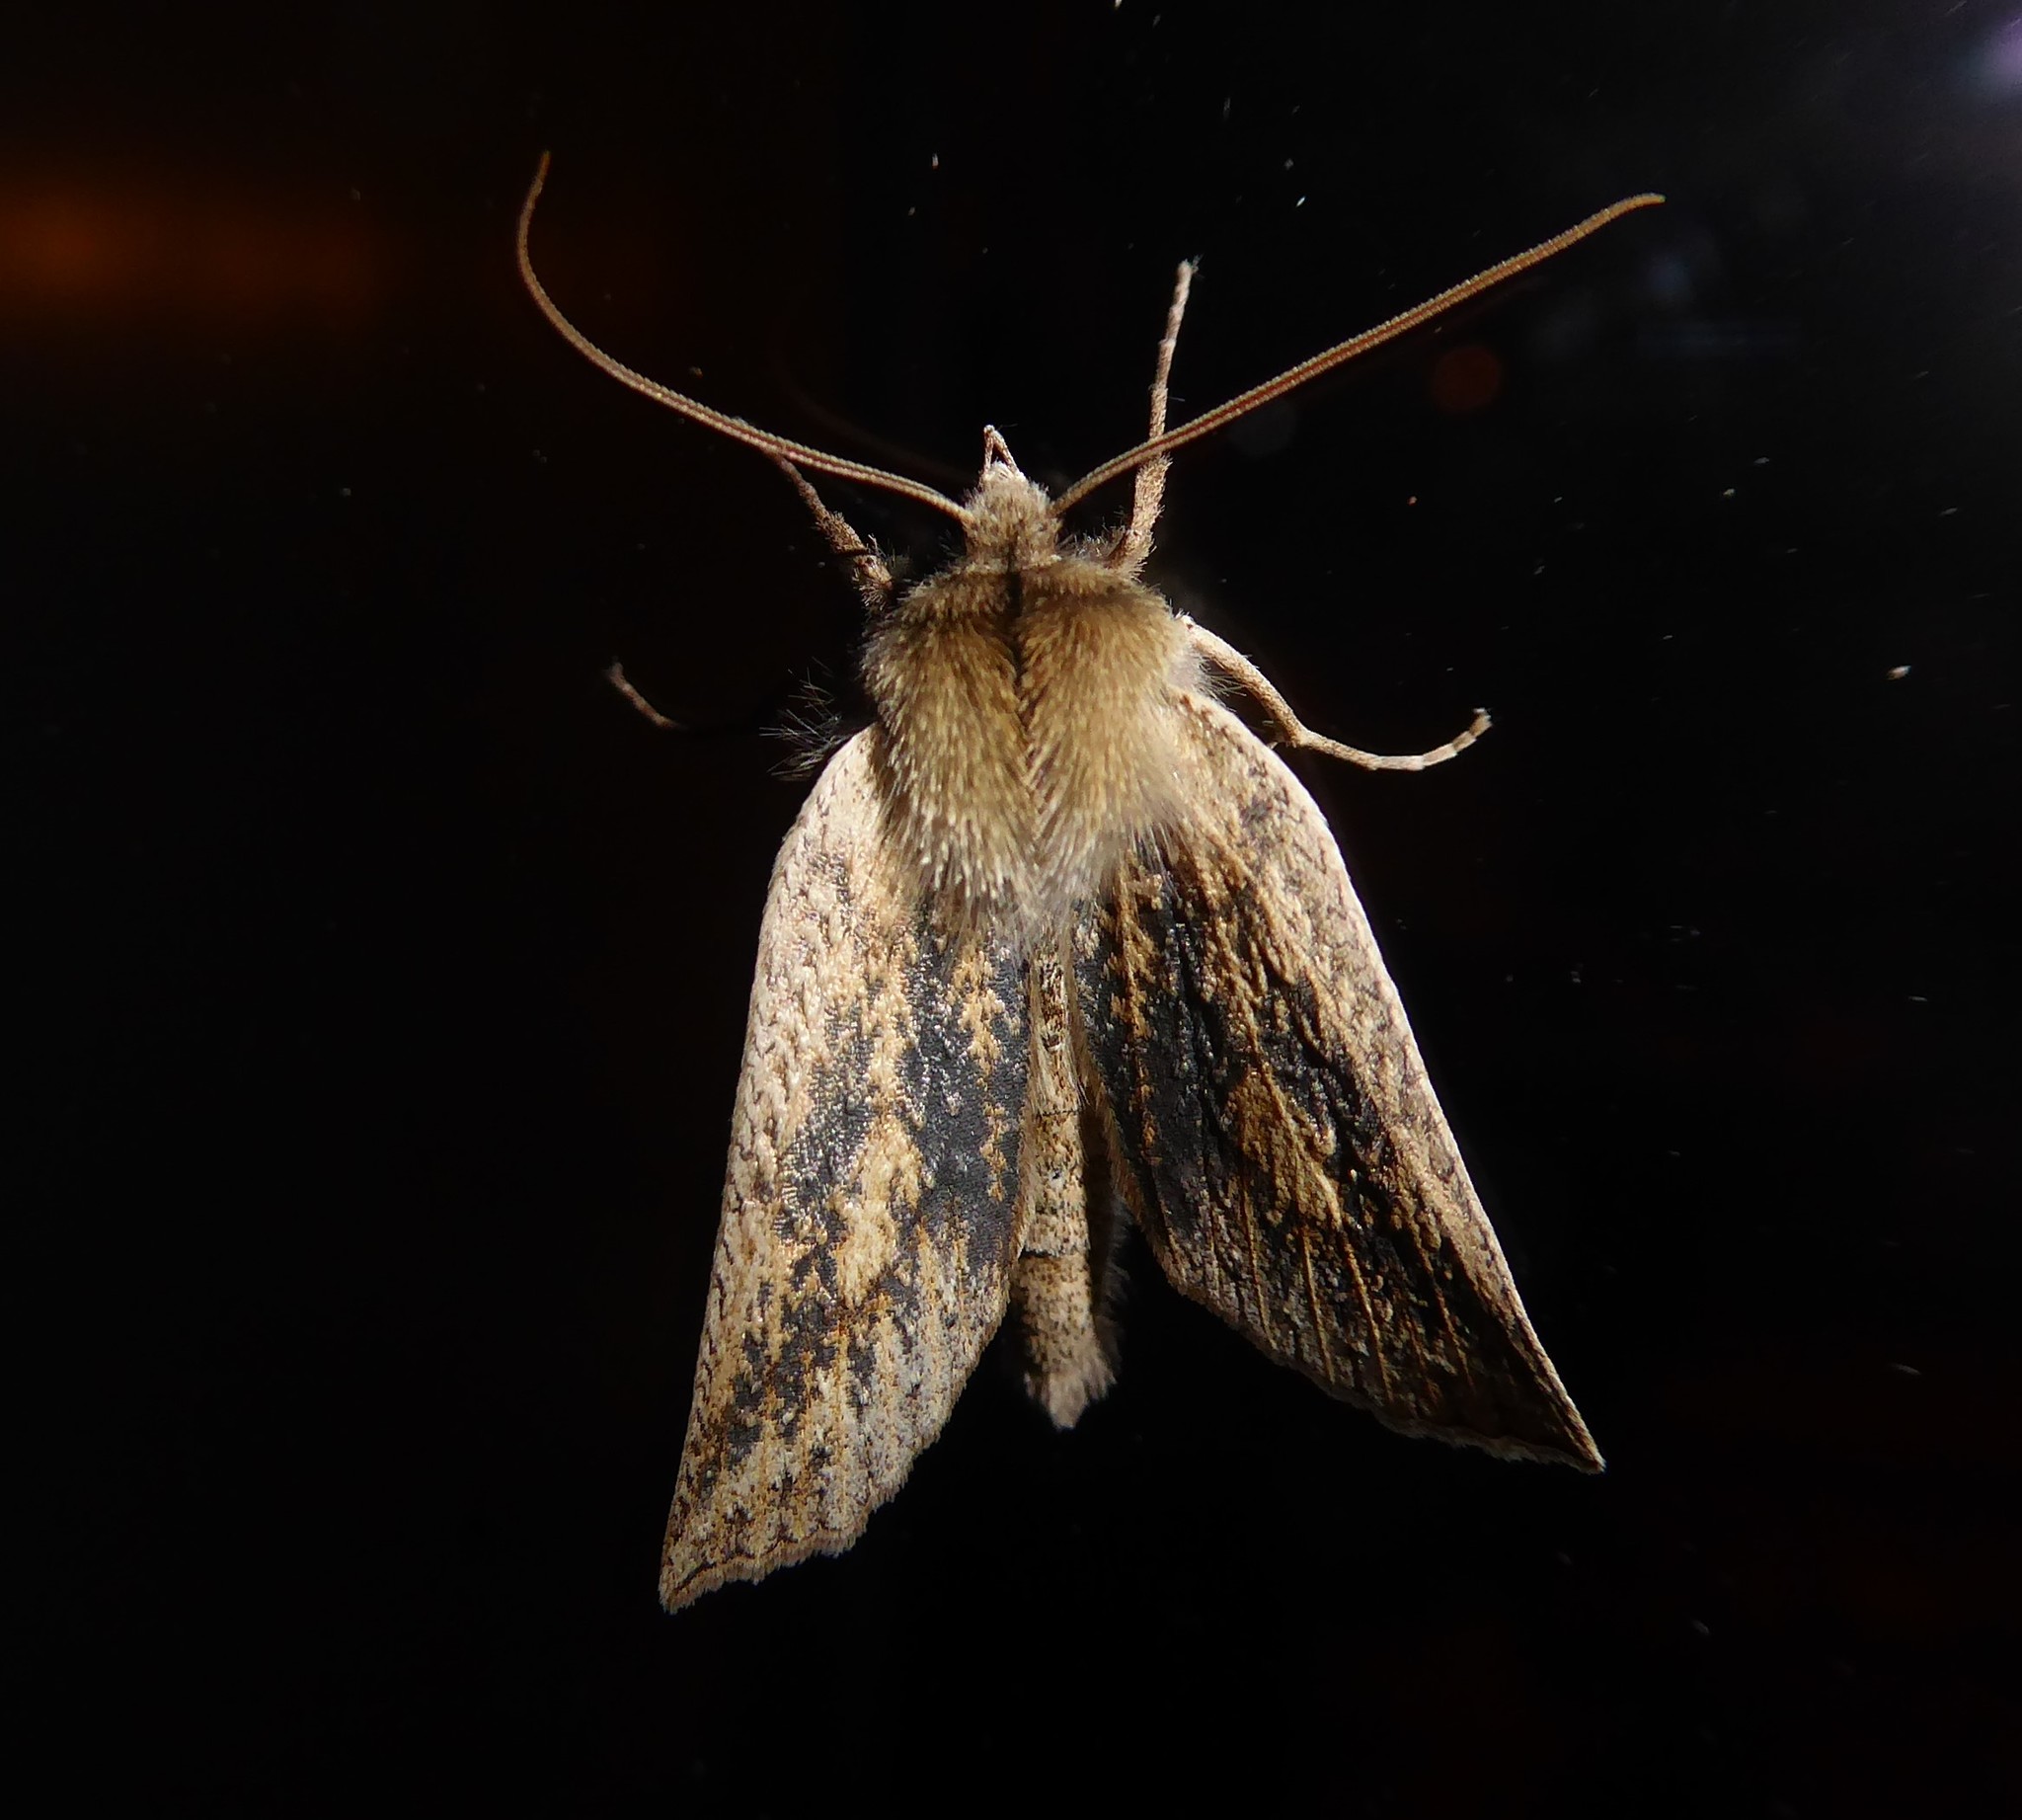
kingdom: Animalia
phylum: Arthropoda
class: Insecta
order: Lepidoptera
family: Geometridae
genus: Declana
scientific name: Declana leptomera
